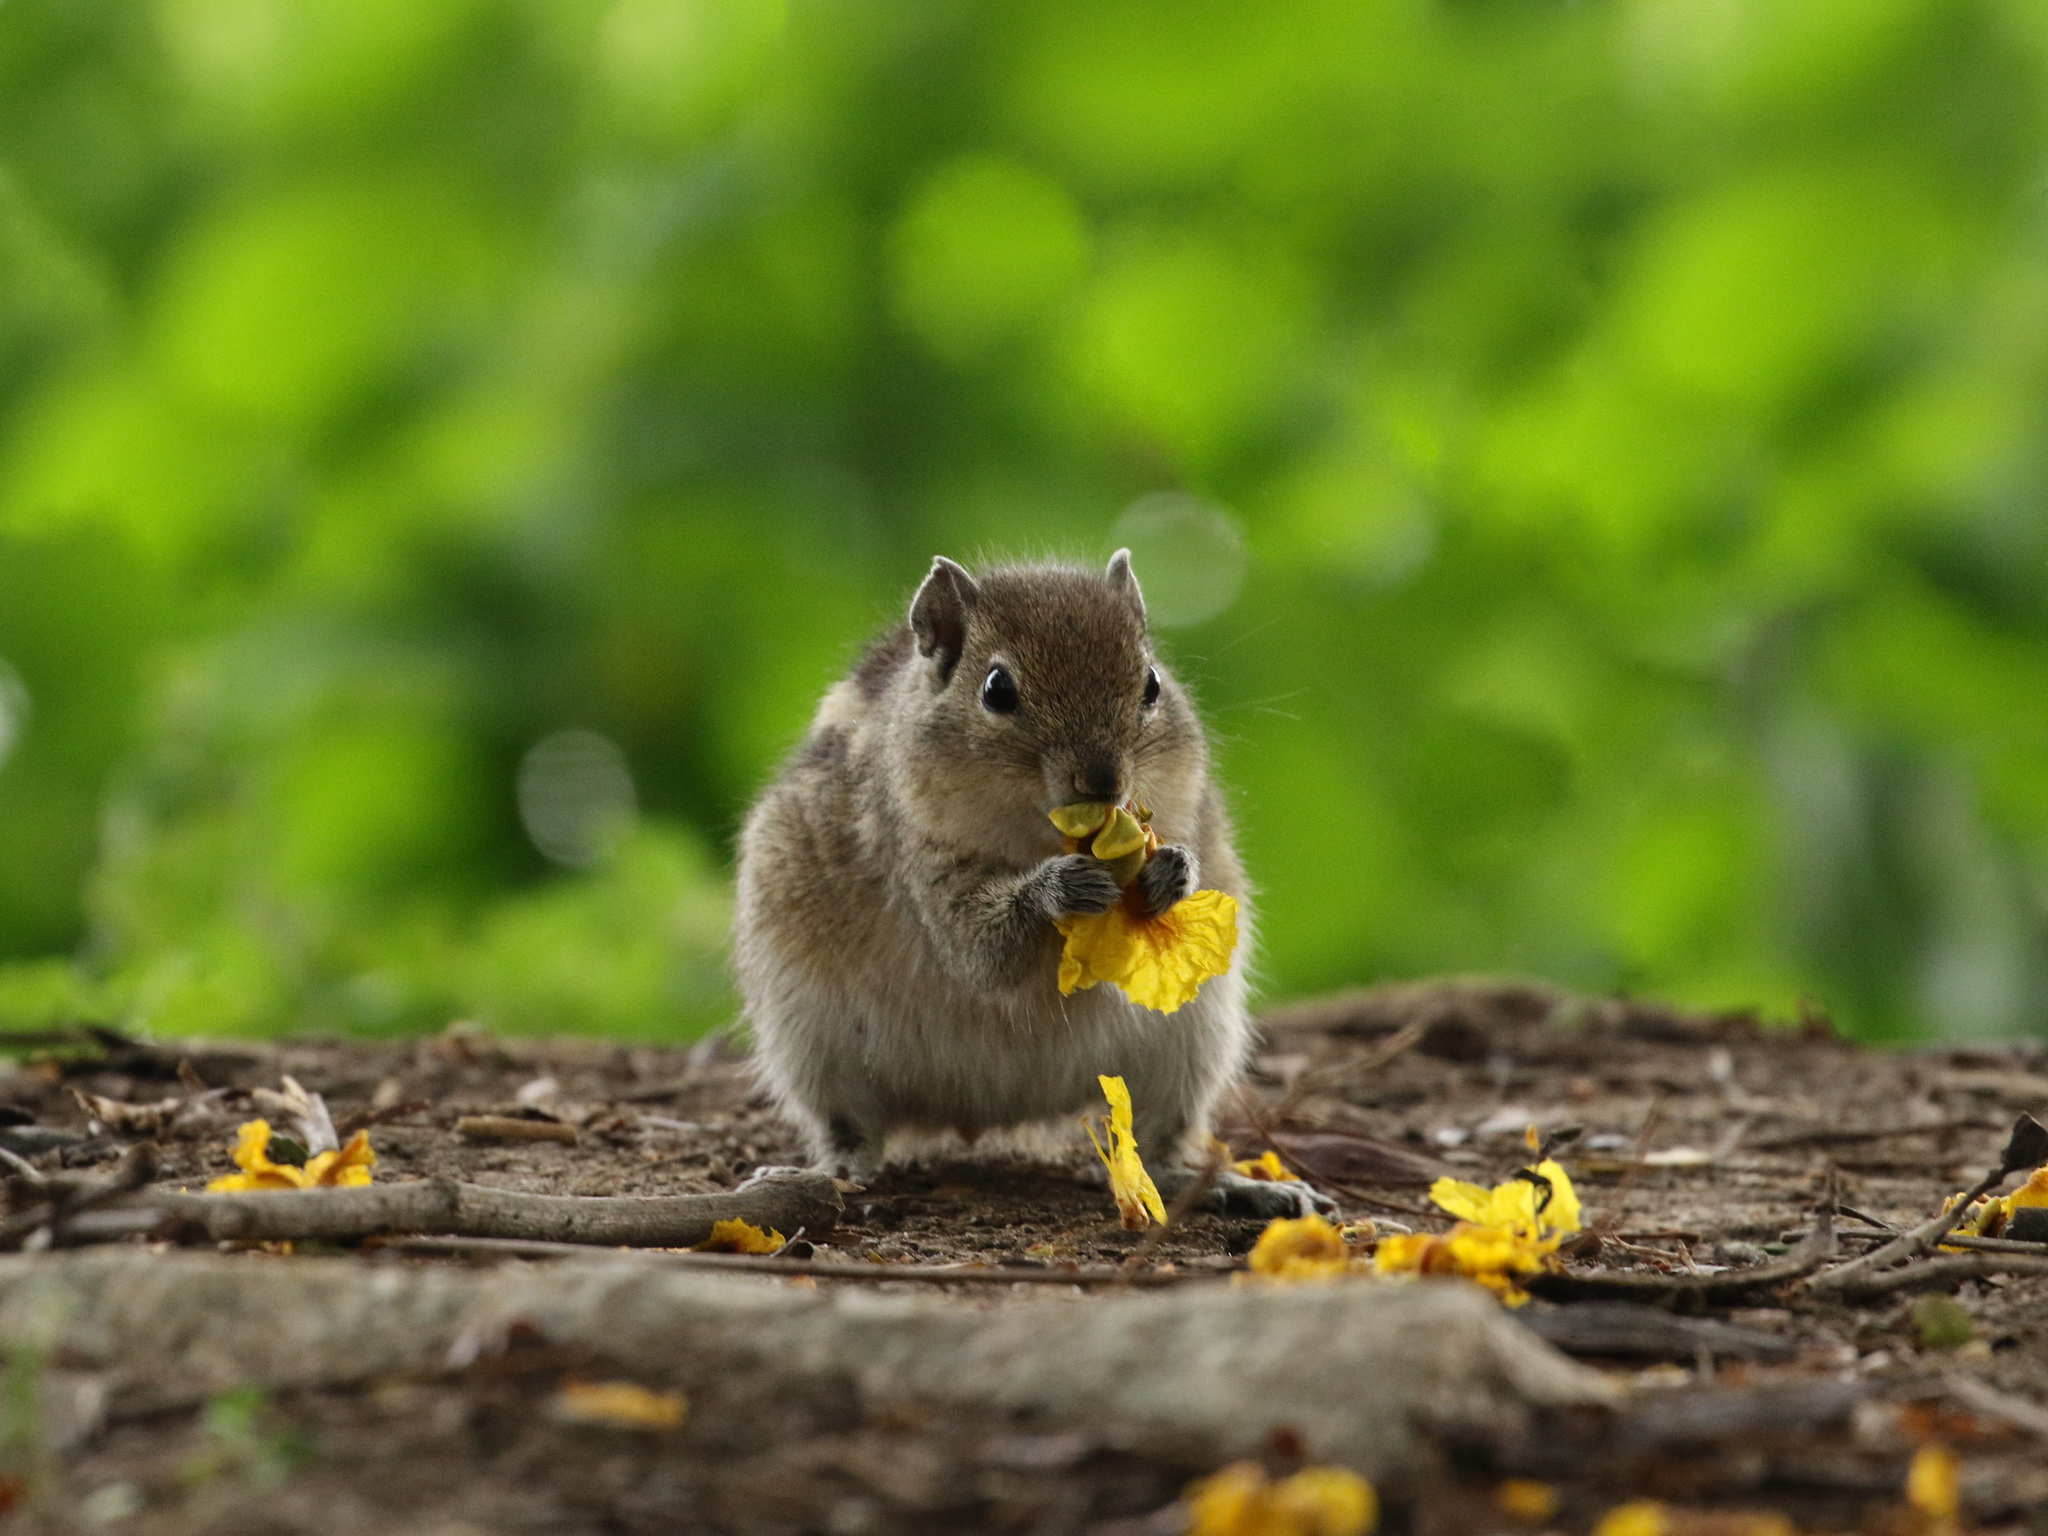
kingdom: Animalia
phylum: Chordata
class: Mammalia
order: Rodentia
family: Sciuridae
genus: Funambulus
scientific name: Funambulus palmarum
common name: Indian palm squirrel
